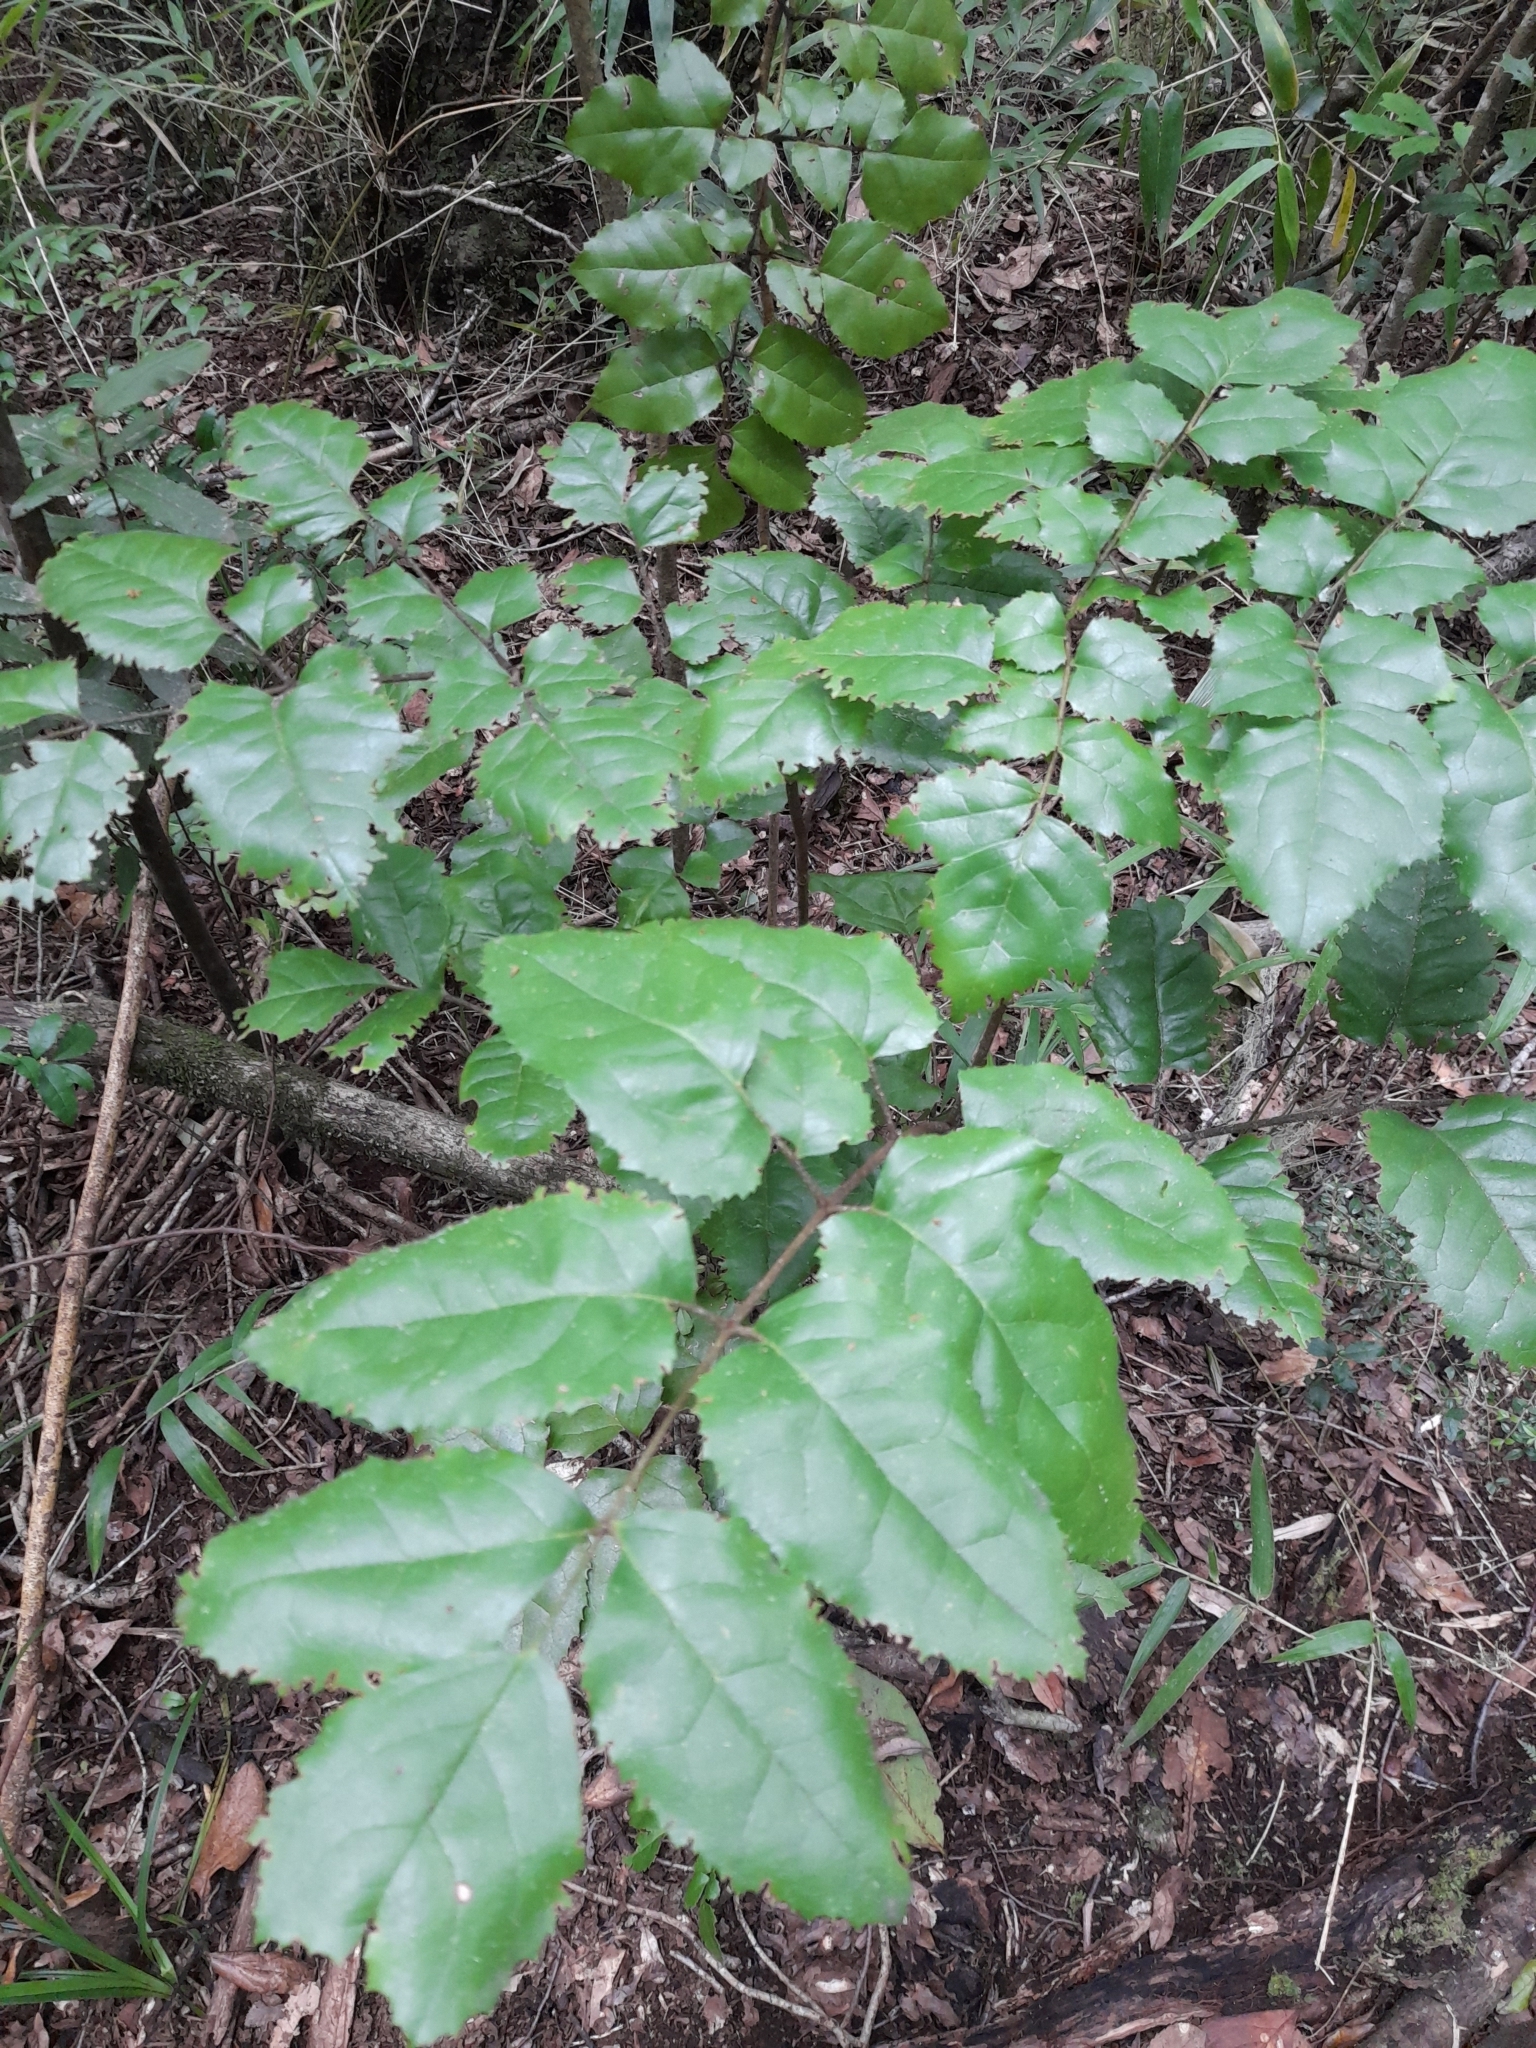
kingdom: Plantae
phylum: Tracheophyta
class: Magnoliopsida
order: Proteales
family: Proteaceae
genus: Gevuina
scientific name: Gevuina avellana
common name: Chilean hazel
